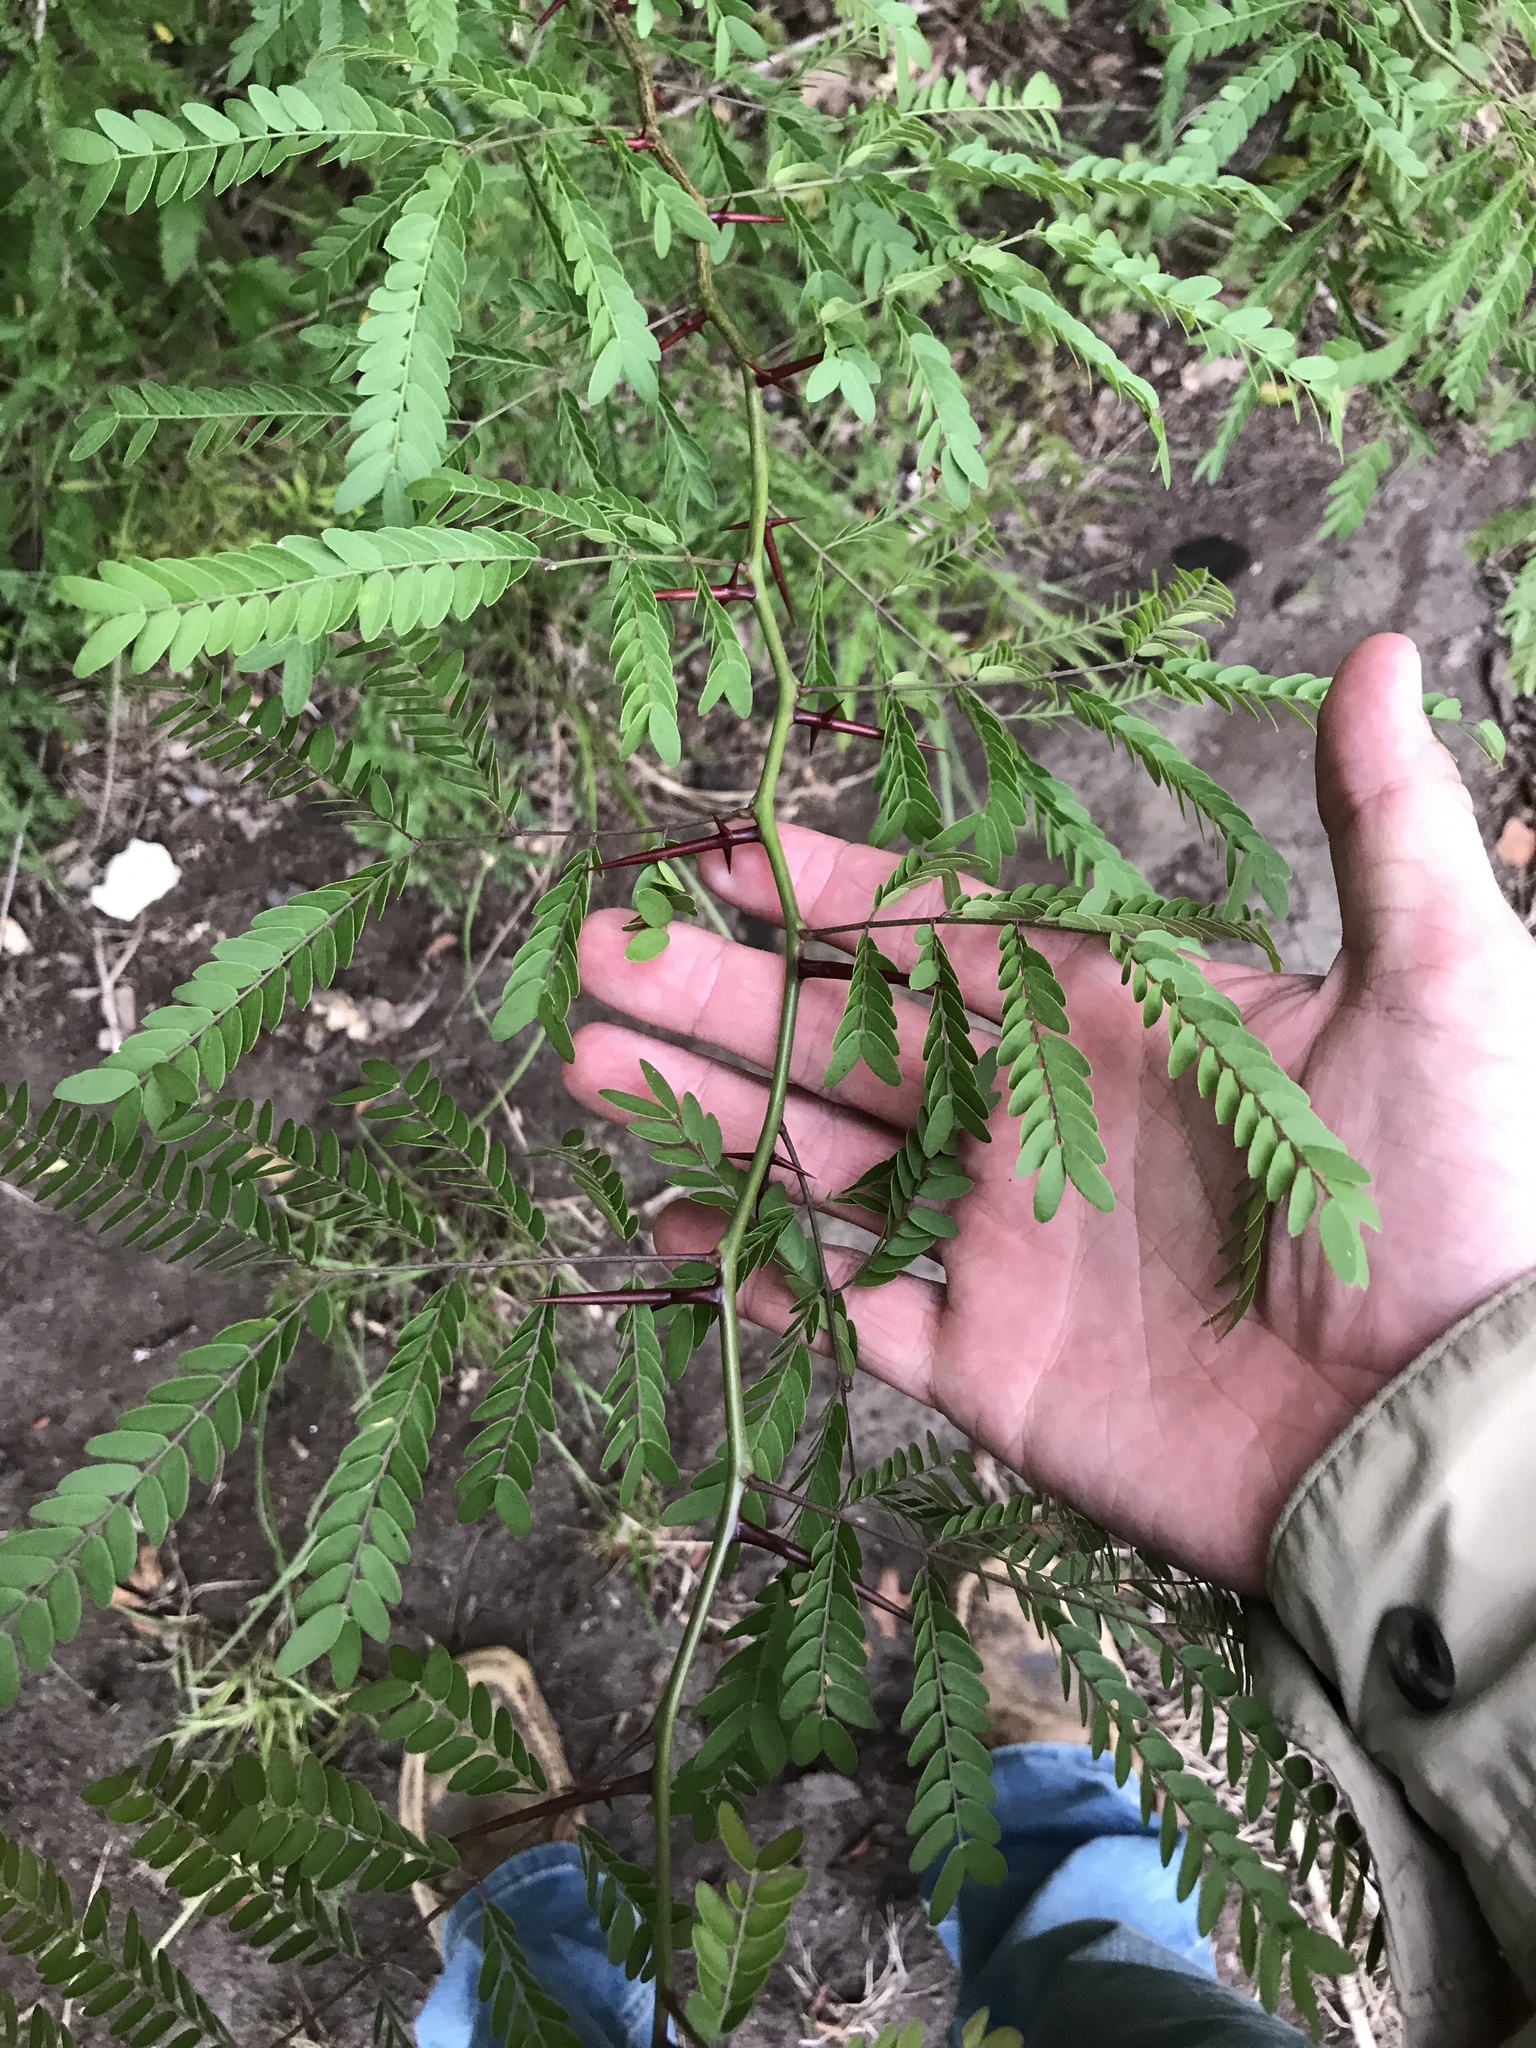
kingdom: Plantae
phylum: Tracheophyta
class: Magnoliopsida
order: Fabales
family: Fabaceae
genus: Gleditsia
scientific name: Gleditsia triacanthos
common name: Common honeylocust
